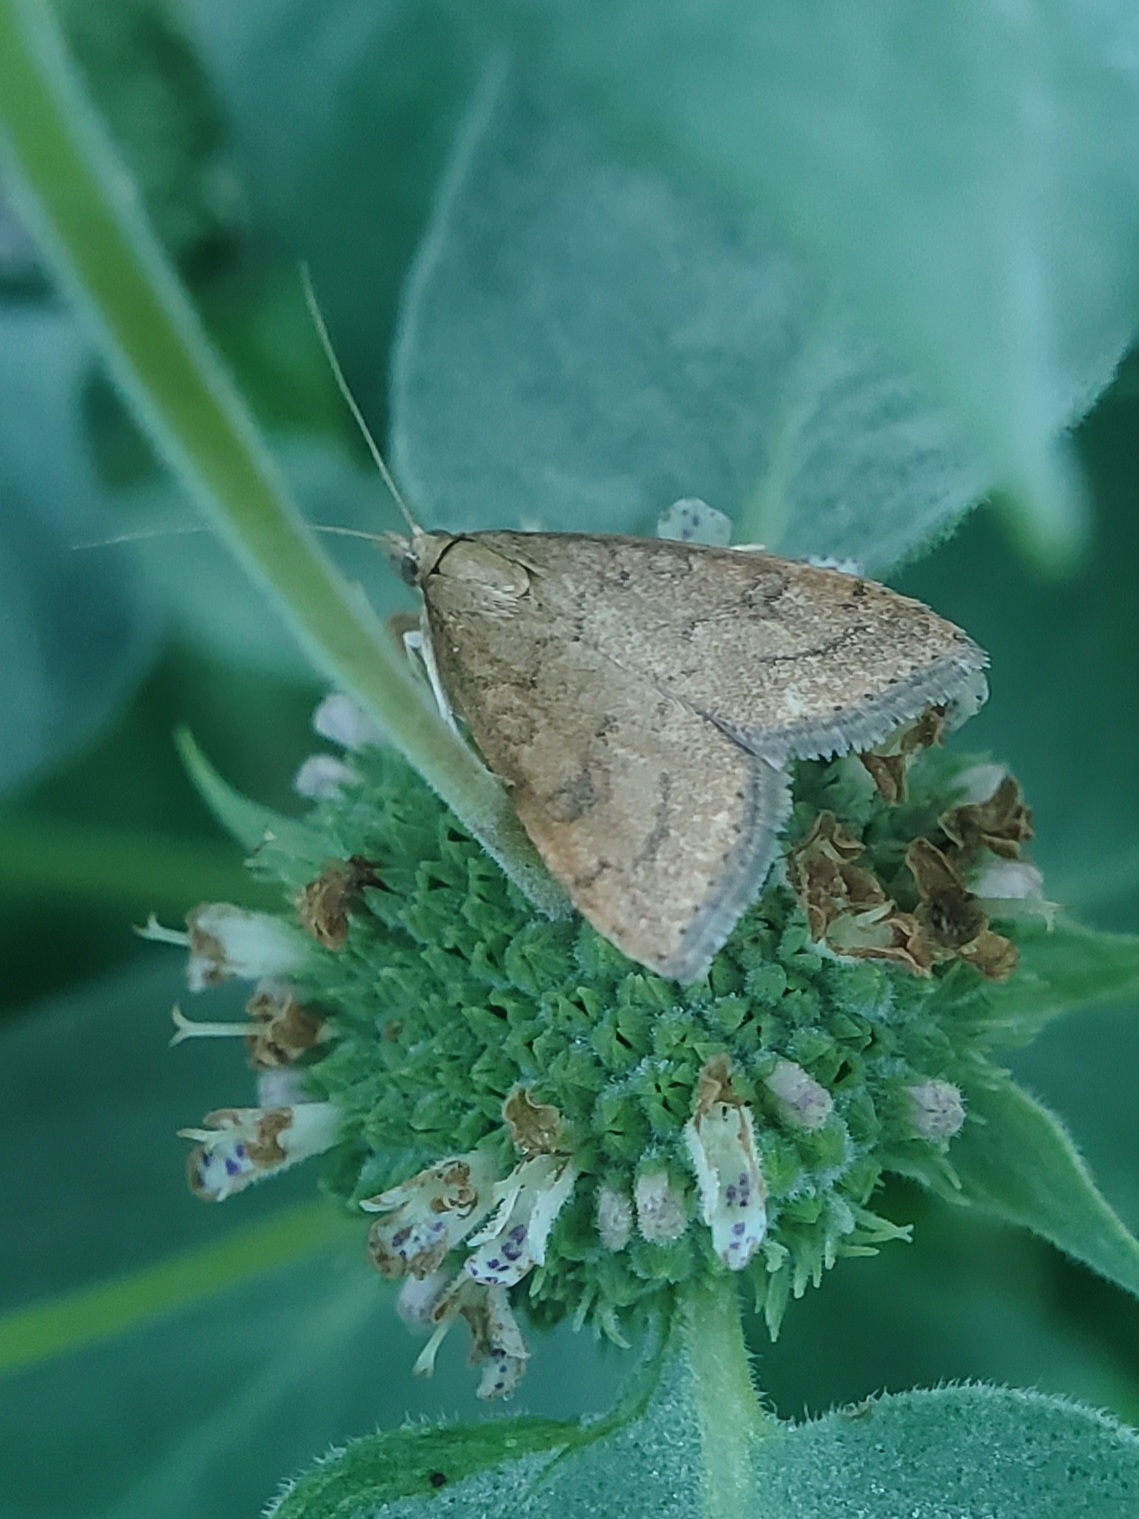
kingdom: Animalia
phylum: Arthropoda
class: Insecta
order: Lepidoptera
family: Crambidae
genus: Udea
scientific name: Udea rubigalis
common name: Celery leaftier moth
